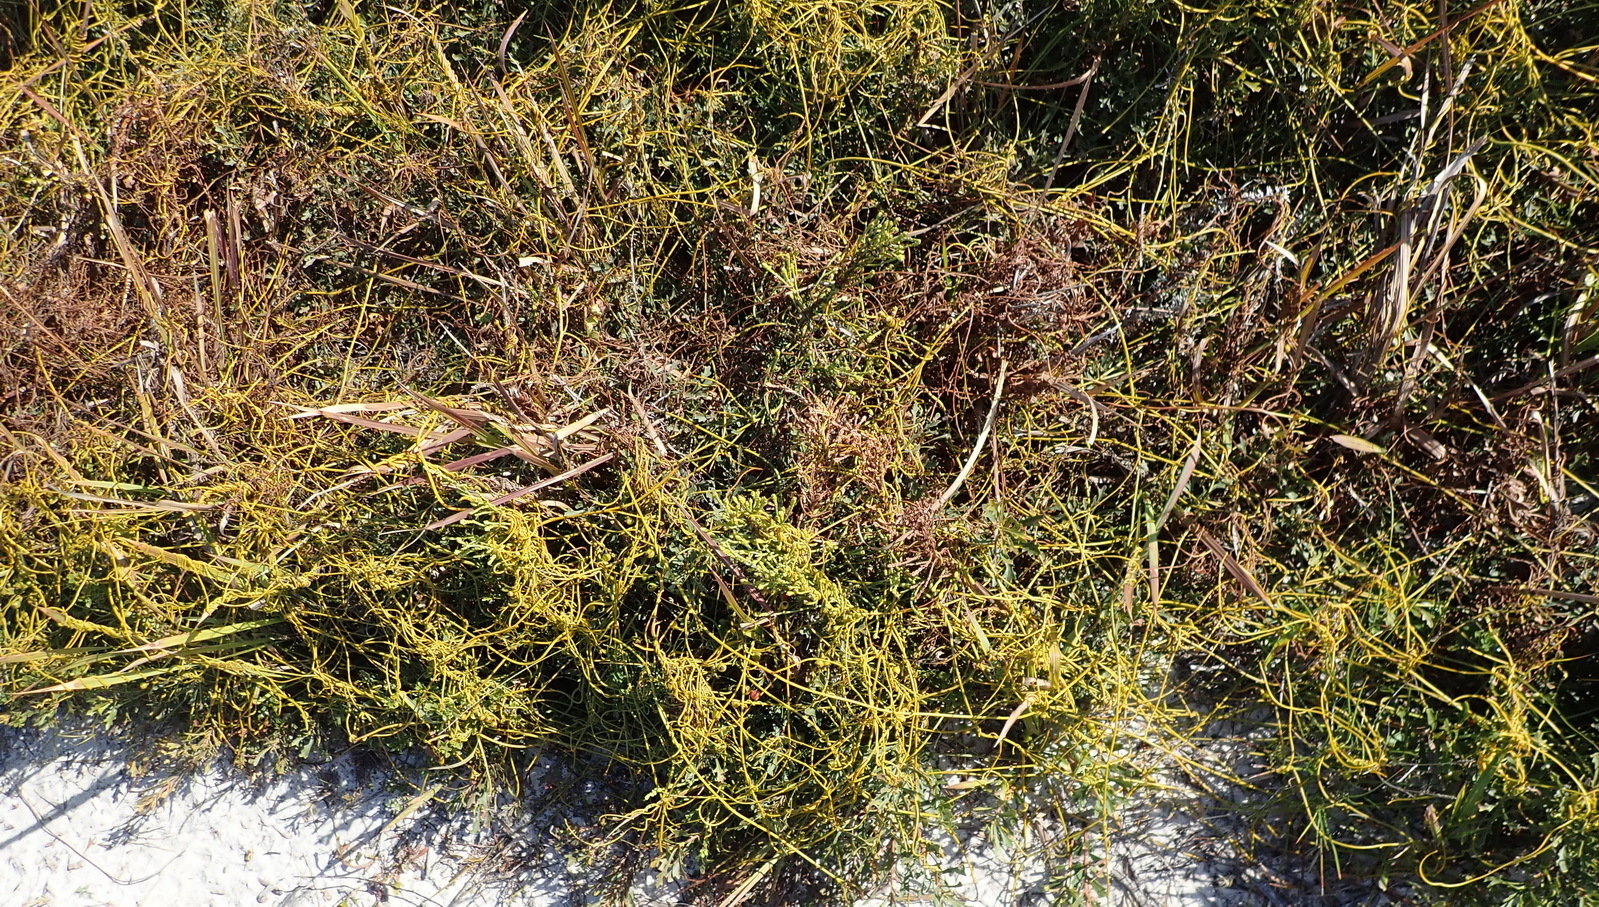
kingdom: Plantae
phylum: Tracheophyta
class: Magnoliopsida
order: Laurales
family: Lauraceae
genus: Cassytha
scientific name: Cassytha ciliolata
